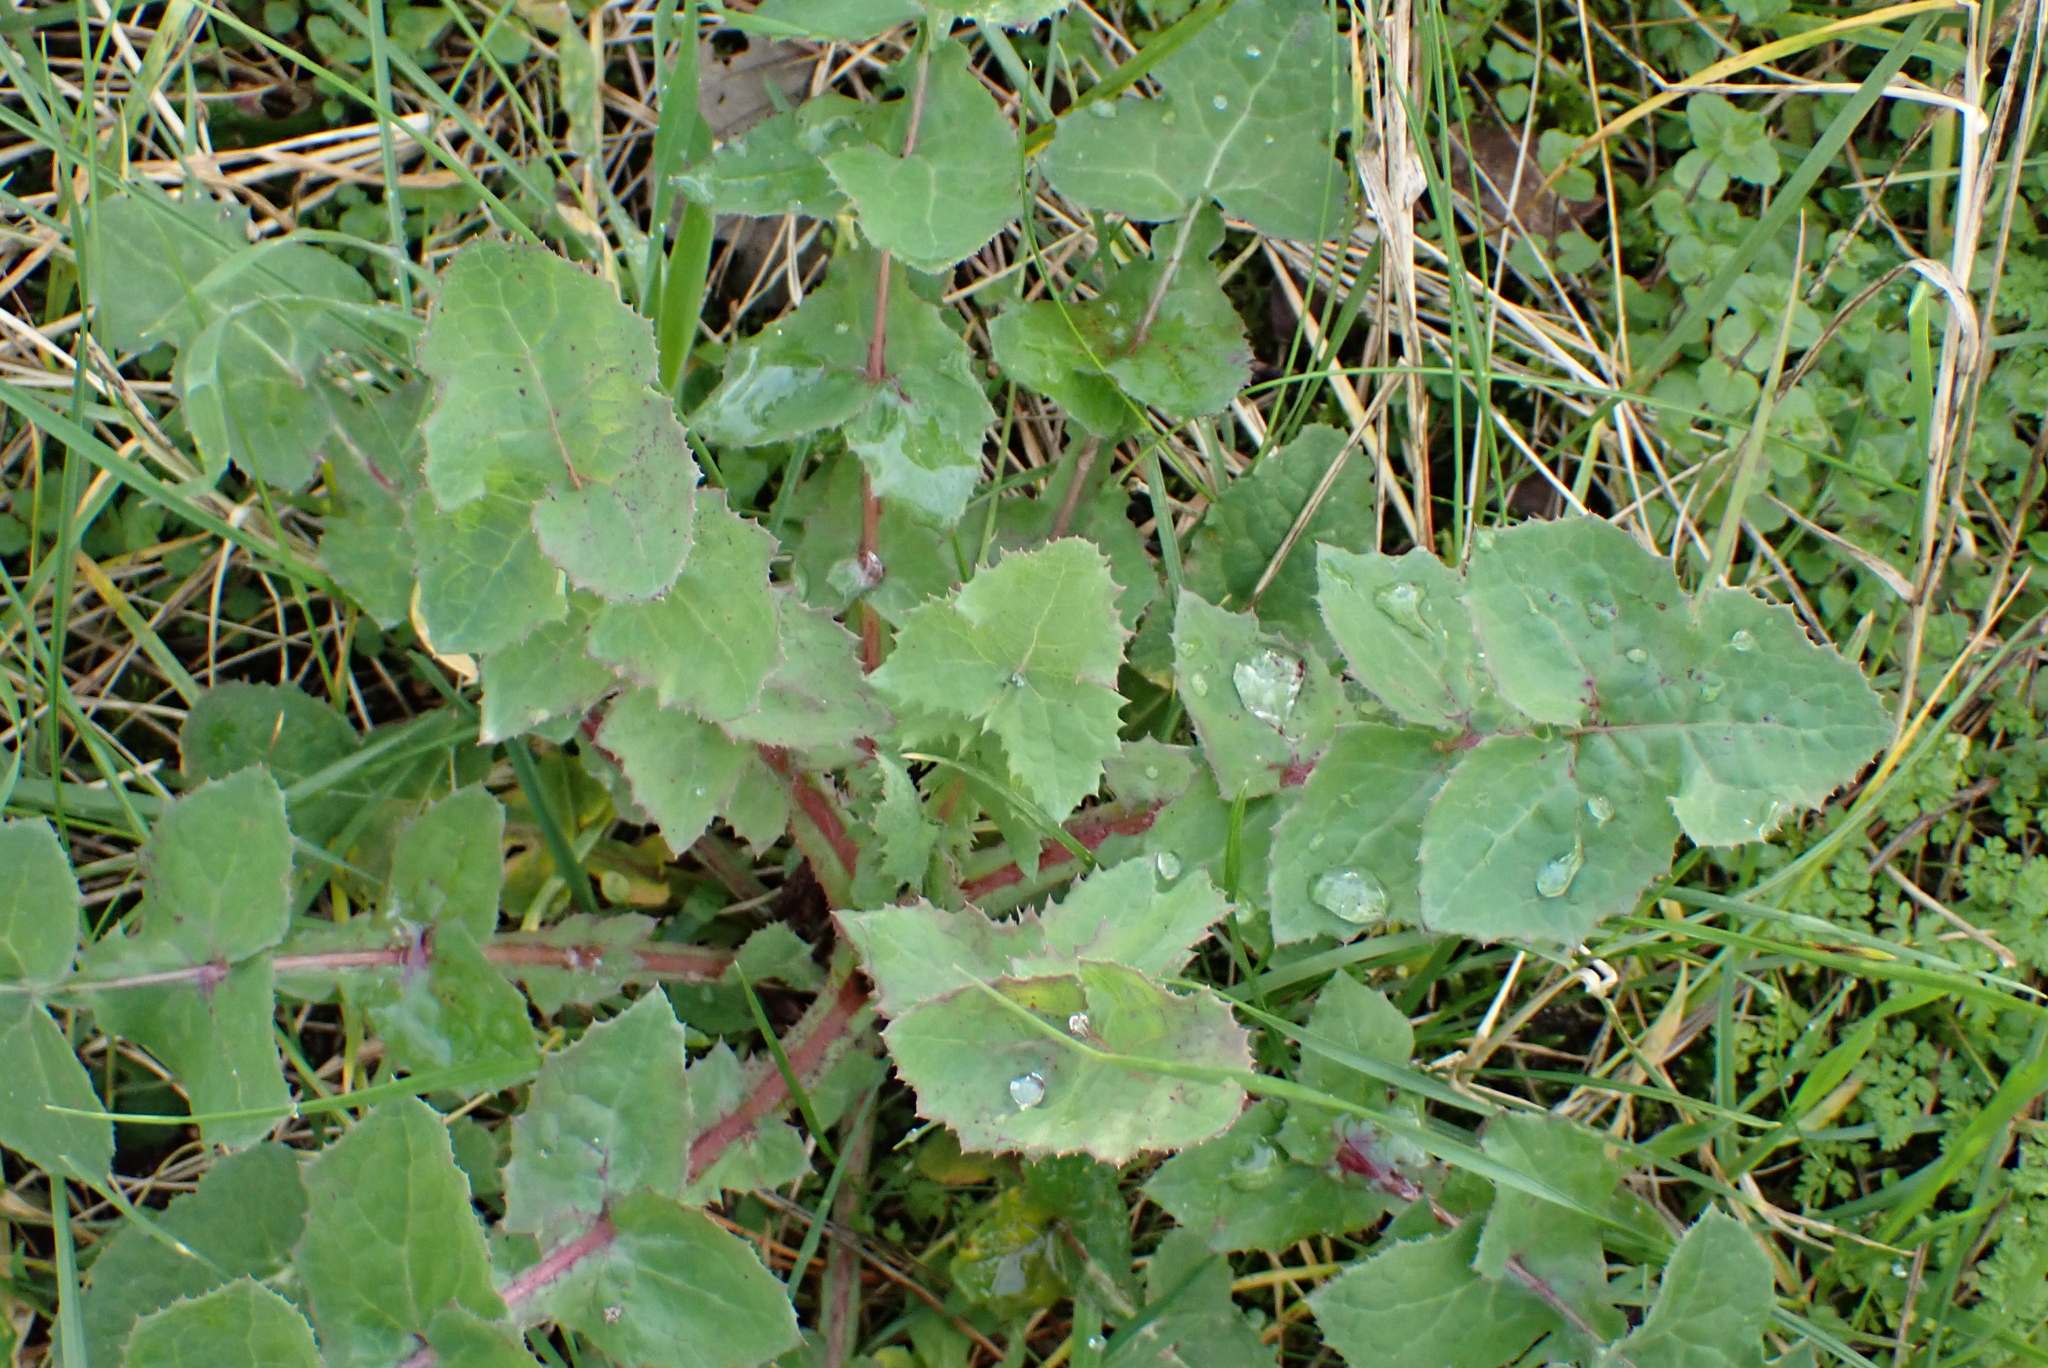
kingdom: Plantae
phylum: Tracheophyta
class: Magnoliopsida
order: Asterales
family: Asteraceae
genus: Sonchus
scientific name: Sonchus oleraceus
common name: Common sowthistle
